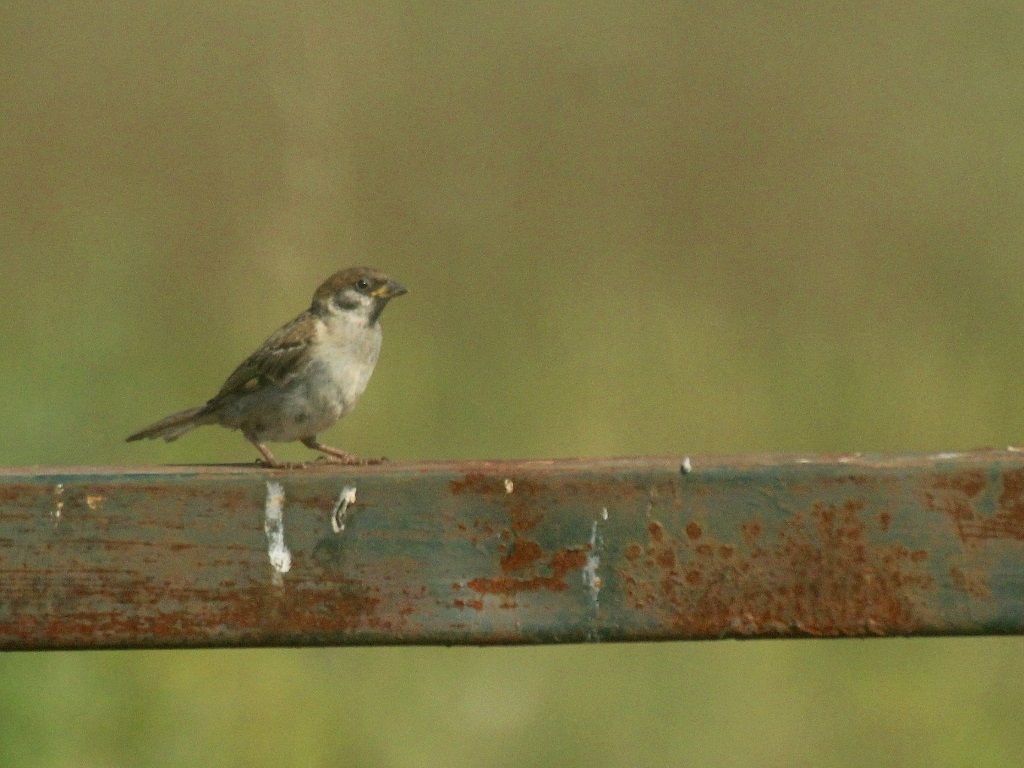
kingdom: Animalia
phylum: Chordata
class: Aves
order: Passeriformes
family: Passeridae
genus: Passer
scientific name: Passer montanus
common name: Eurasian tree sparrow
